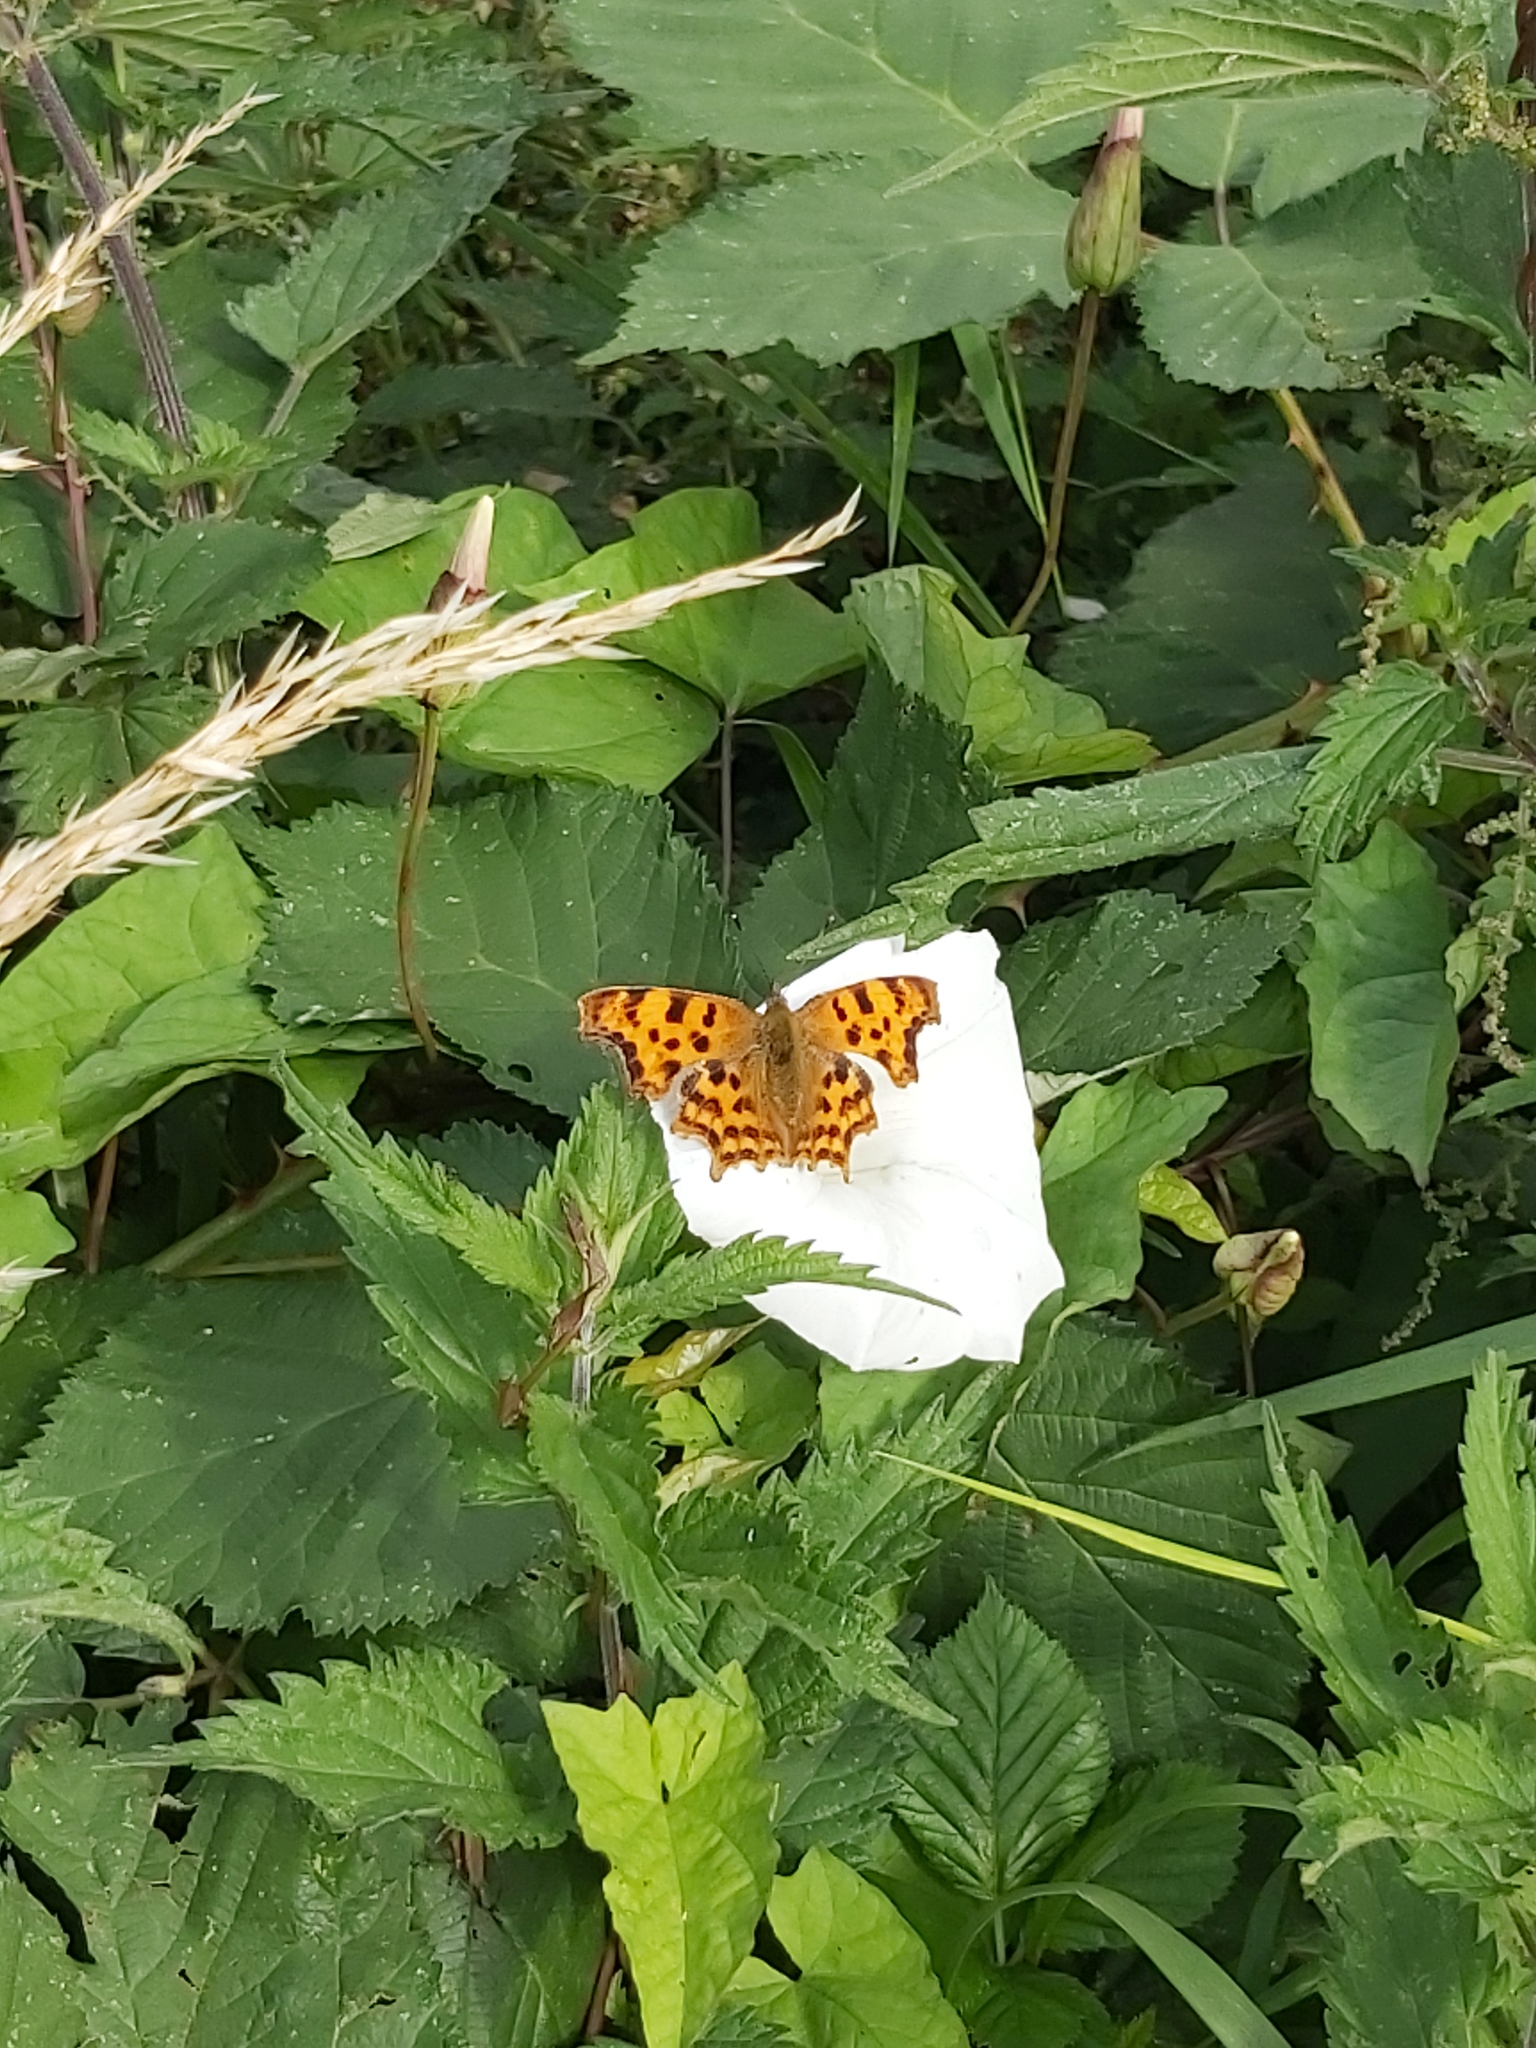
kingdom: Animalia
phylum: Arthropoda
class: Insecta
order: Lepidoptera
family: Nymphalidae
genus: Polygonia
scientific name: Polygonia c-album
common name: Comma
